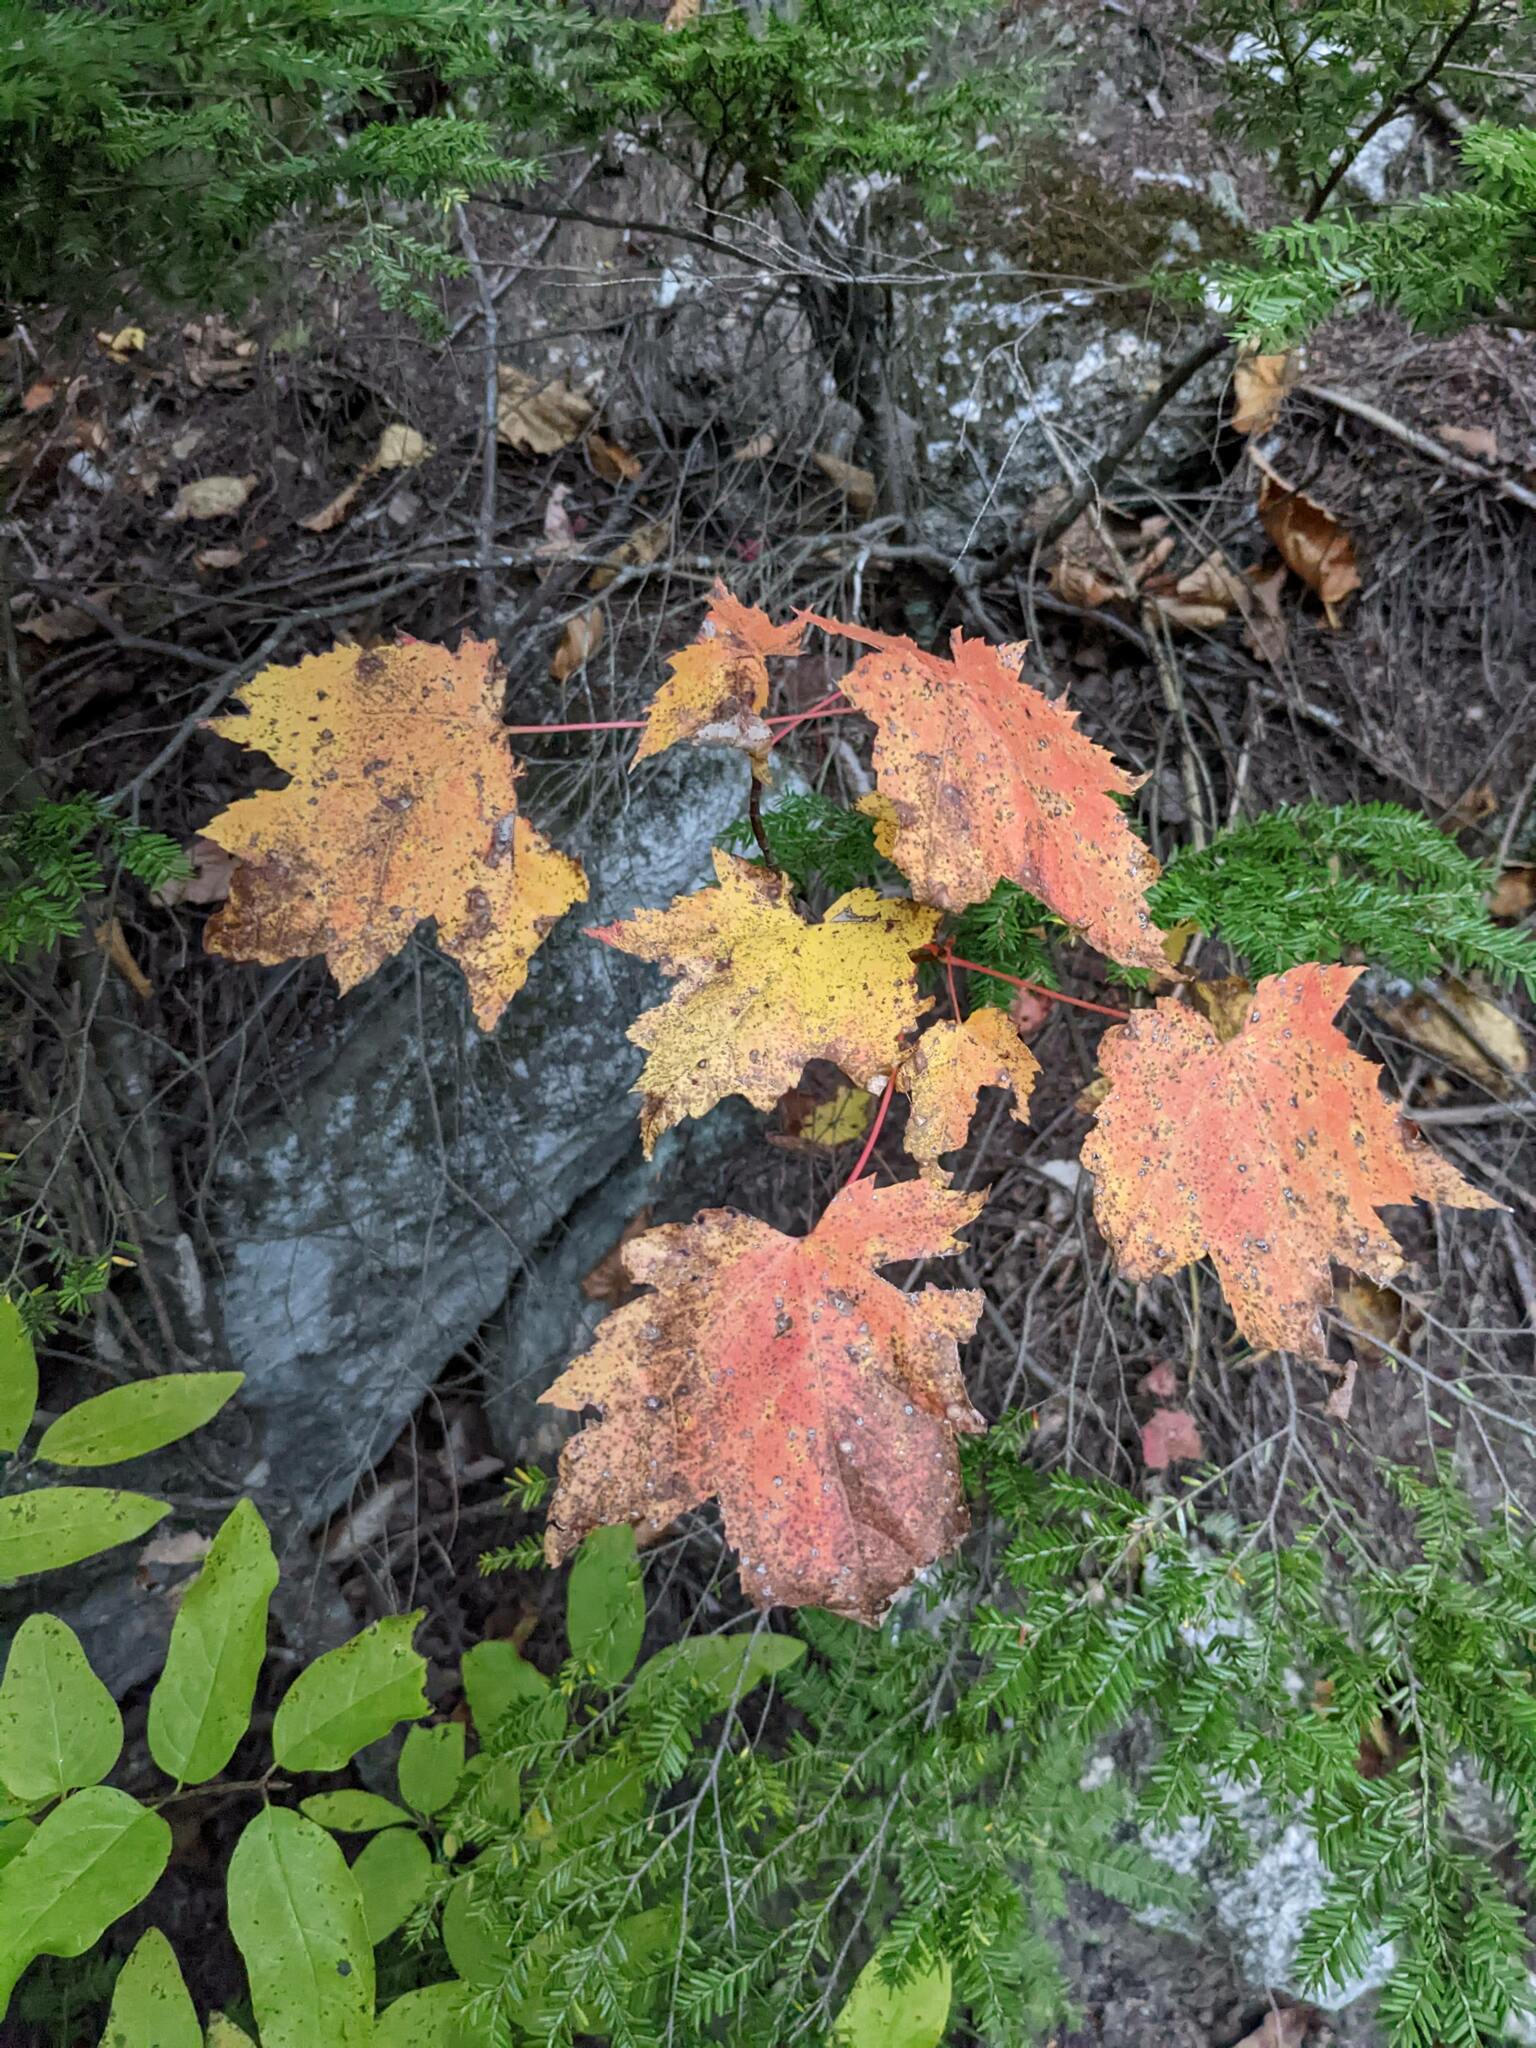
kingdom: Plantae
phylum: Tracheophyta
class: Magnoliopsida
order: Sapindales
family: Sapindaceae
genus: Acer
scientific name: Acer rubrum
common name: Red maple
